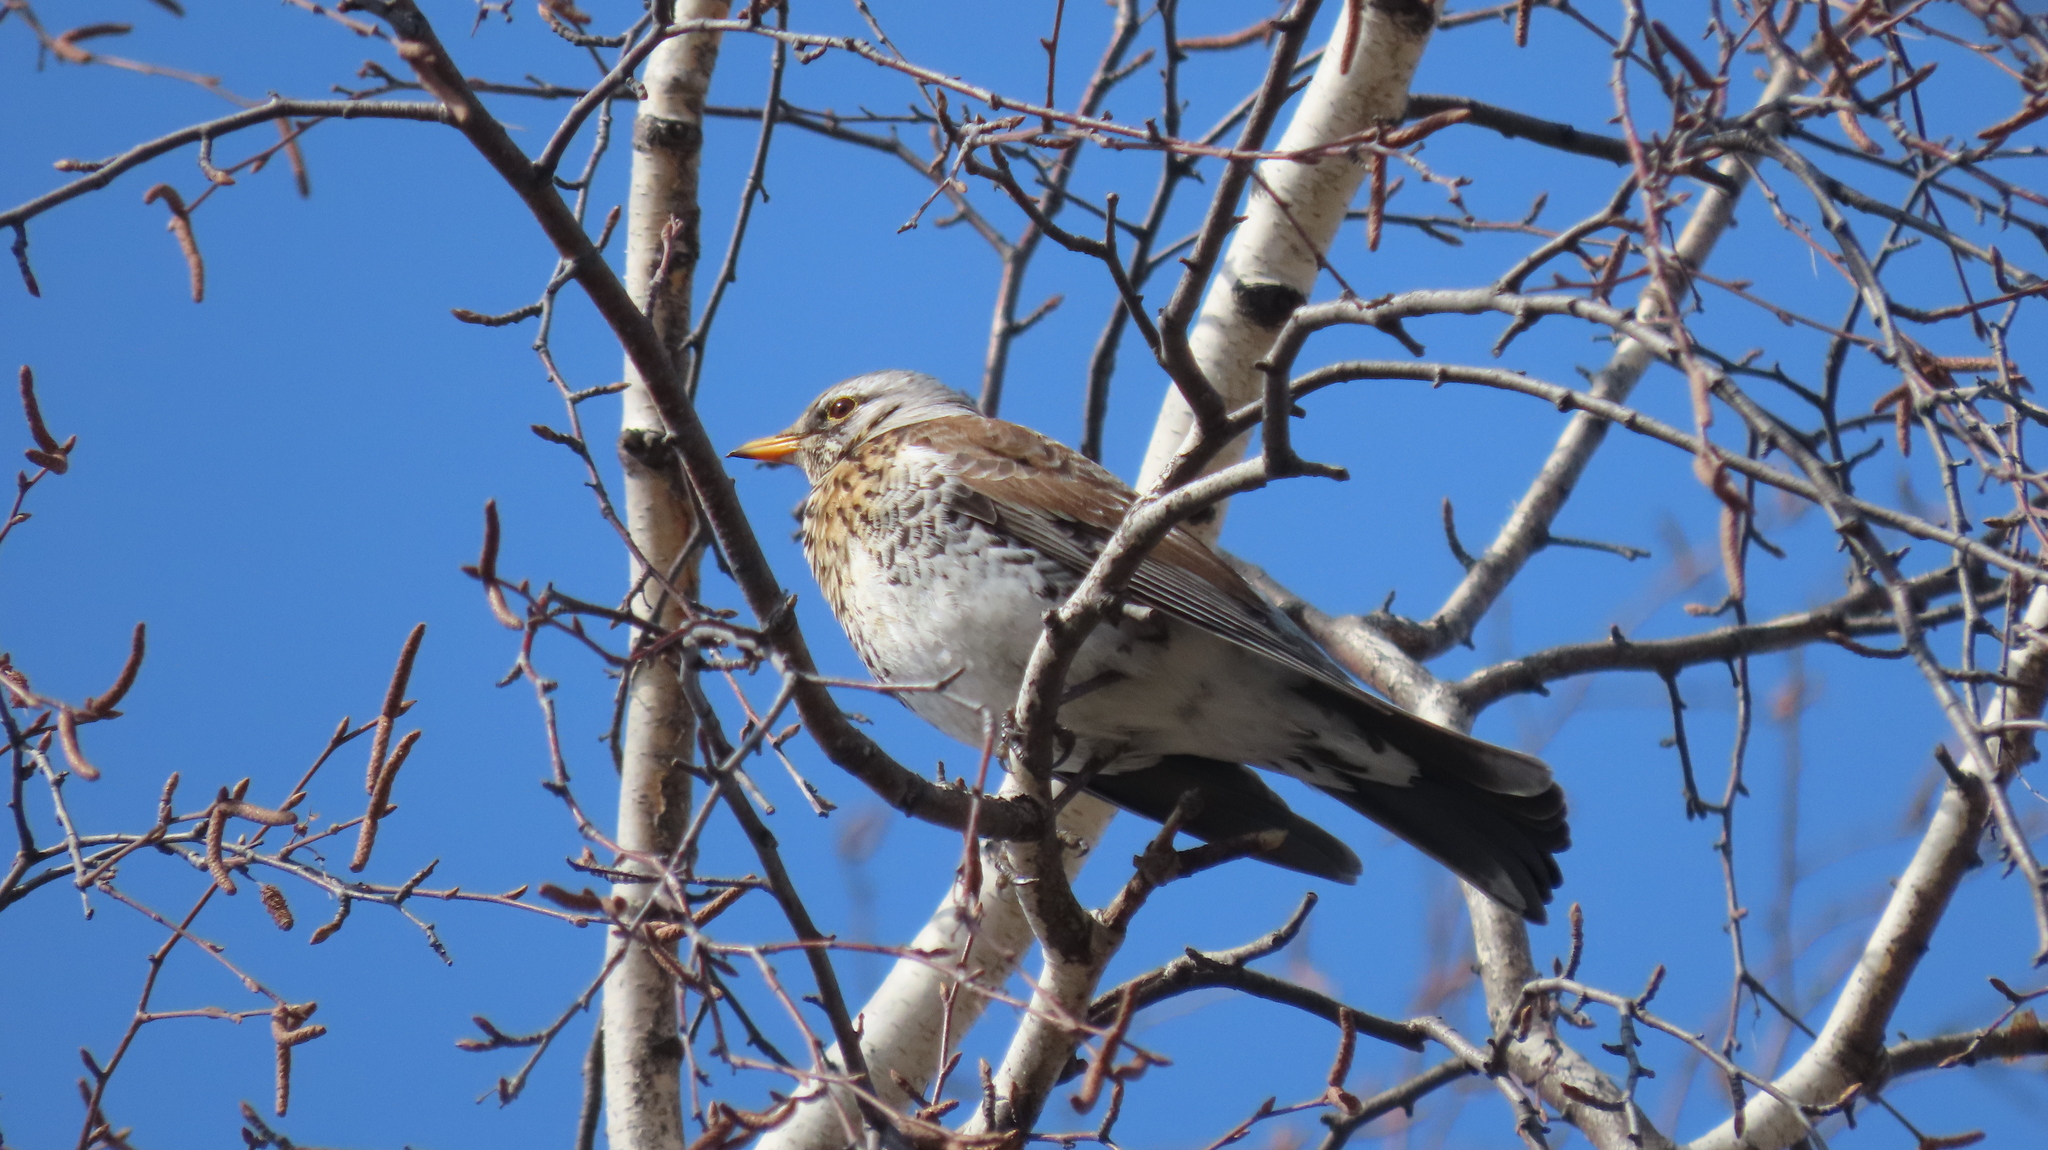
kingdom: Animalia
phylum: Chordata
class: Aves
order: Passeriformes
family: Turdidae
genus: Turdus
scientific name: Turdus pilaris
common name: Fieldfare
